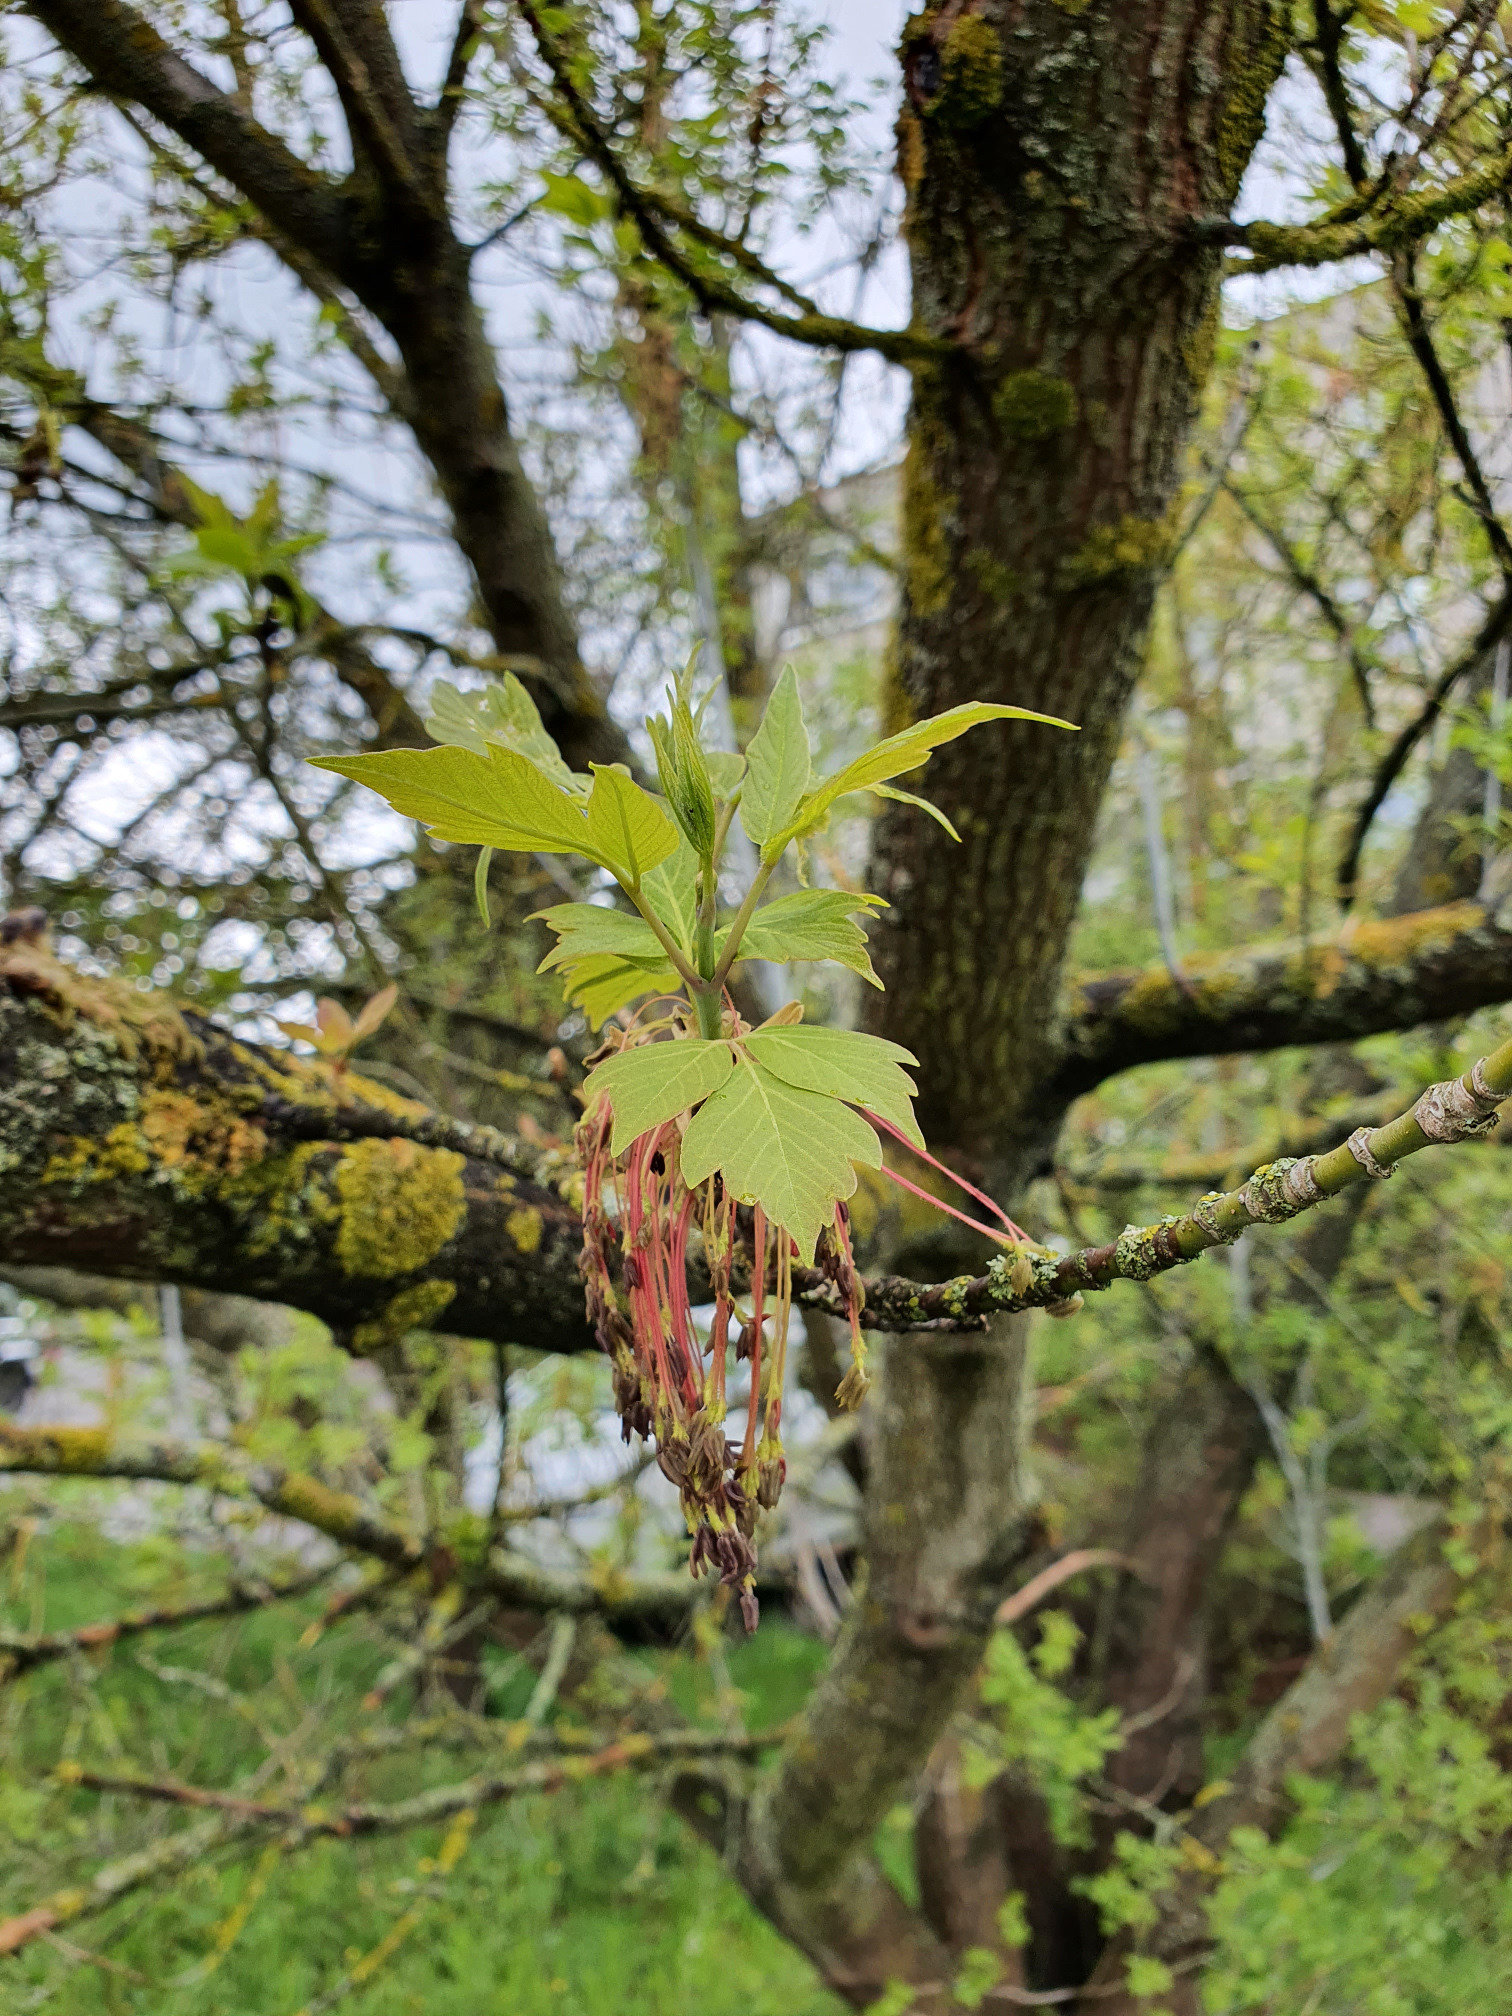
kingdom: Plantae
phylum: Tracheophyta
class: Magnoliopsida
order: Sapindales
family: Sapindaceae
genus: Acer
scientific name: Acer negundo
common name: Ashleaf maple
